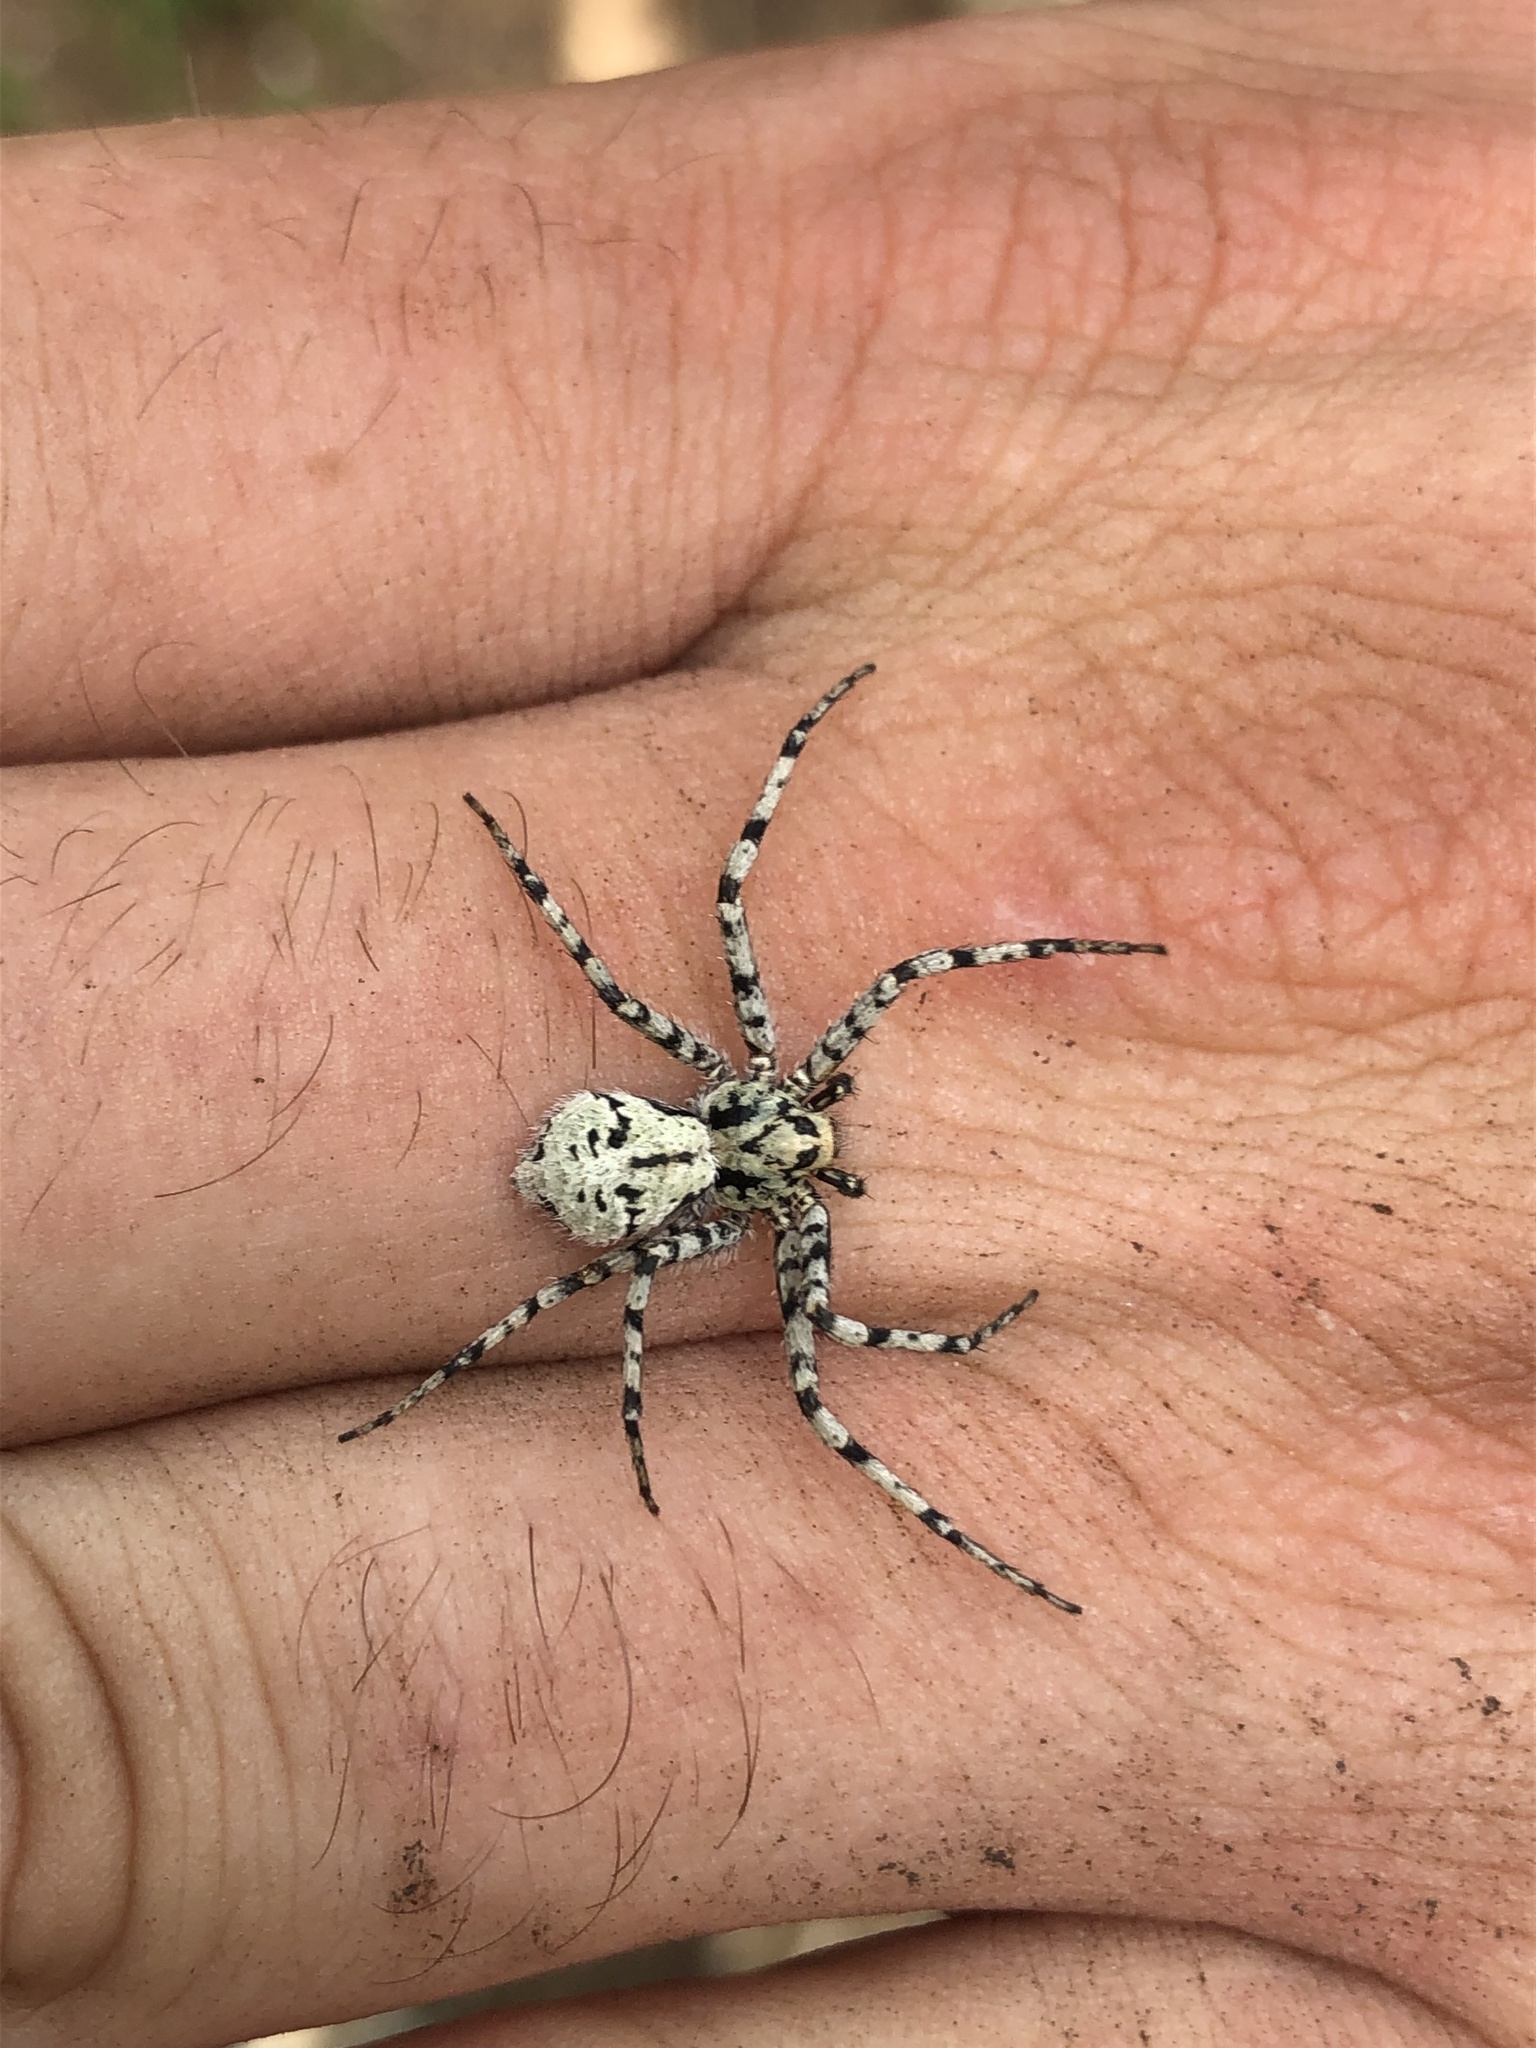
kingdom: Animalia
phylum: Arthropoda
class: Arachnida
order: Araneae
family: Philodromidae
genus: Philodromus
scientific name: Philodromus margaritatus
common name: Lichen running-spider
